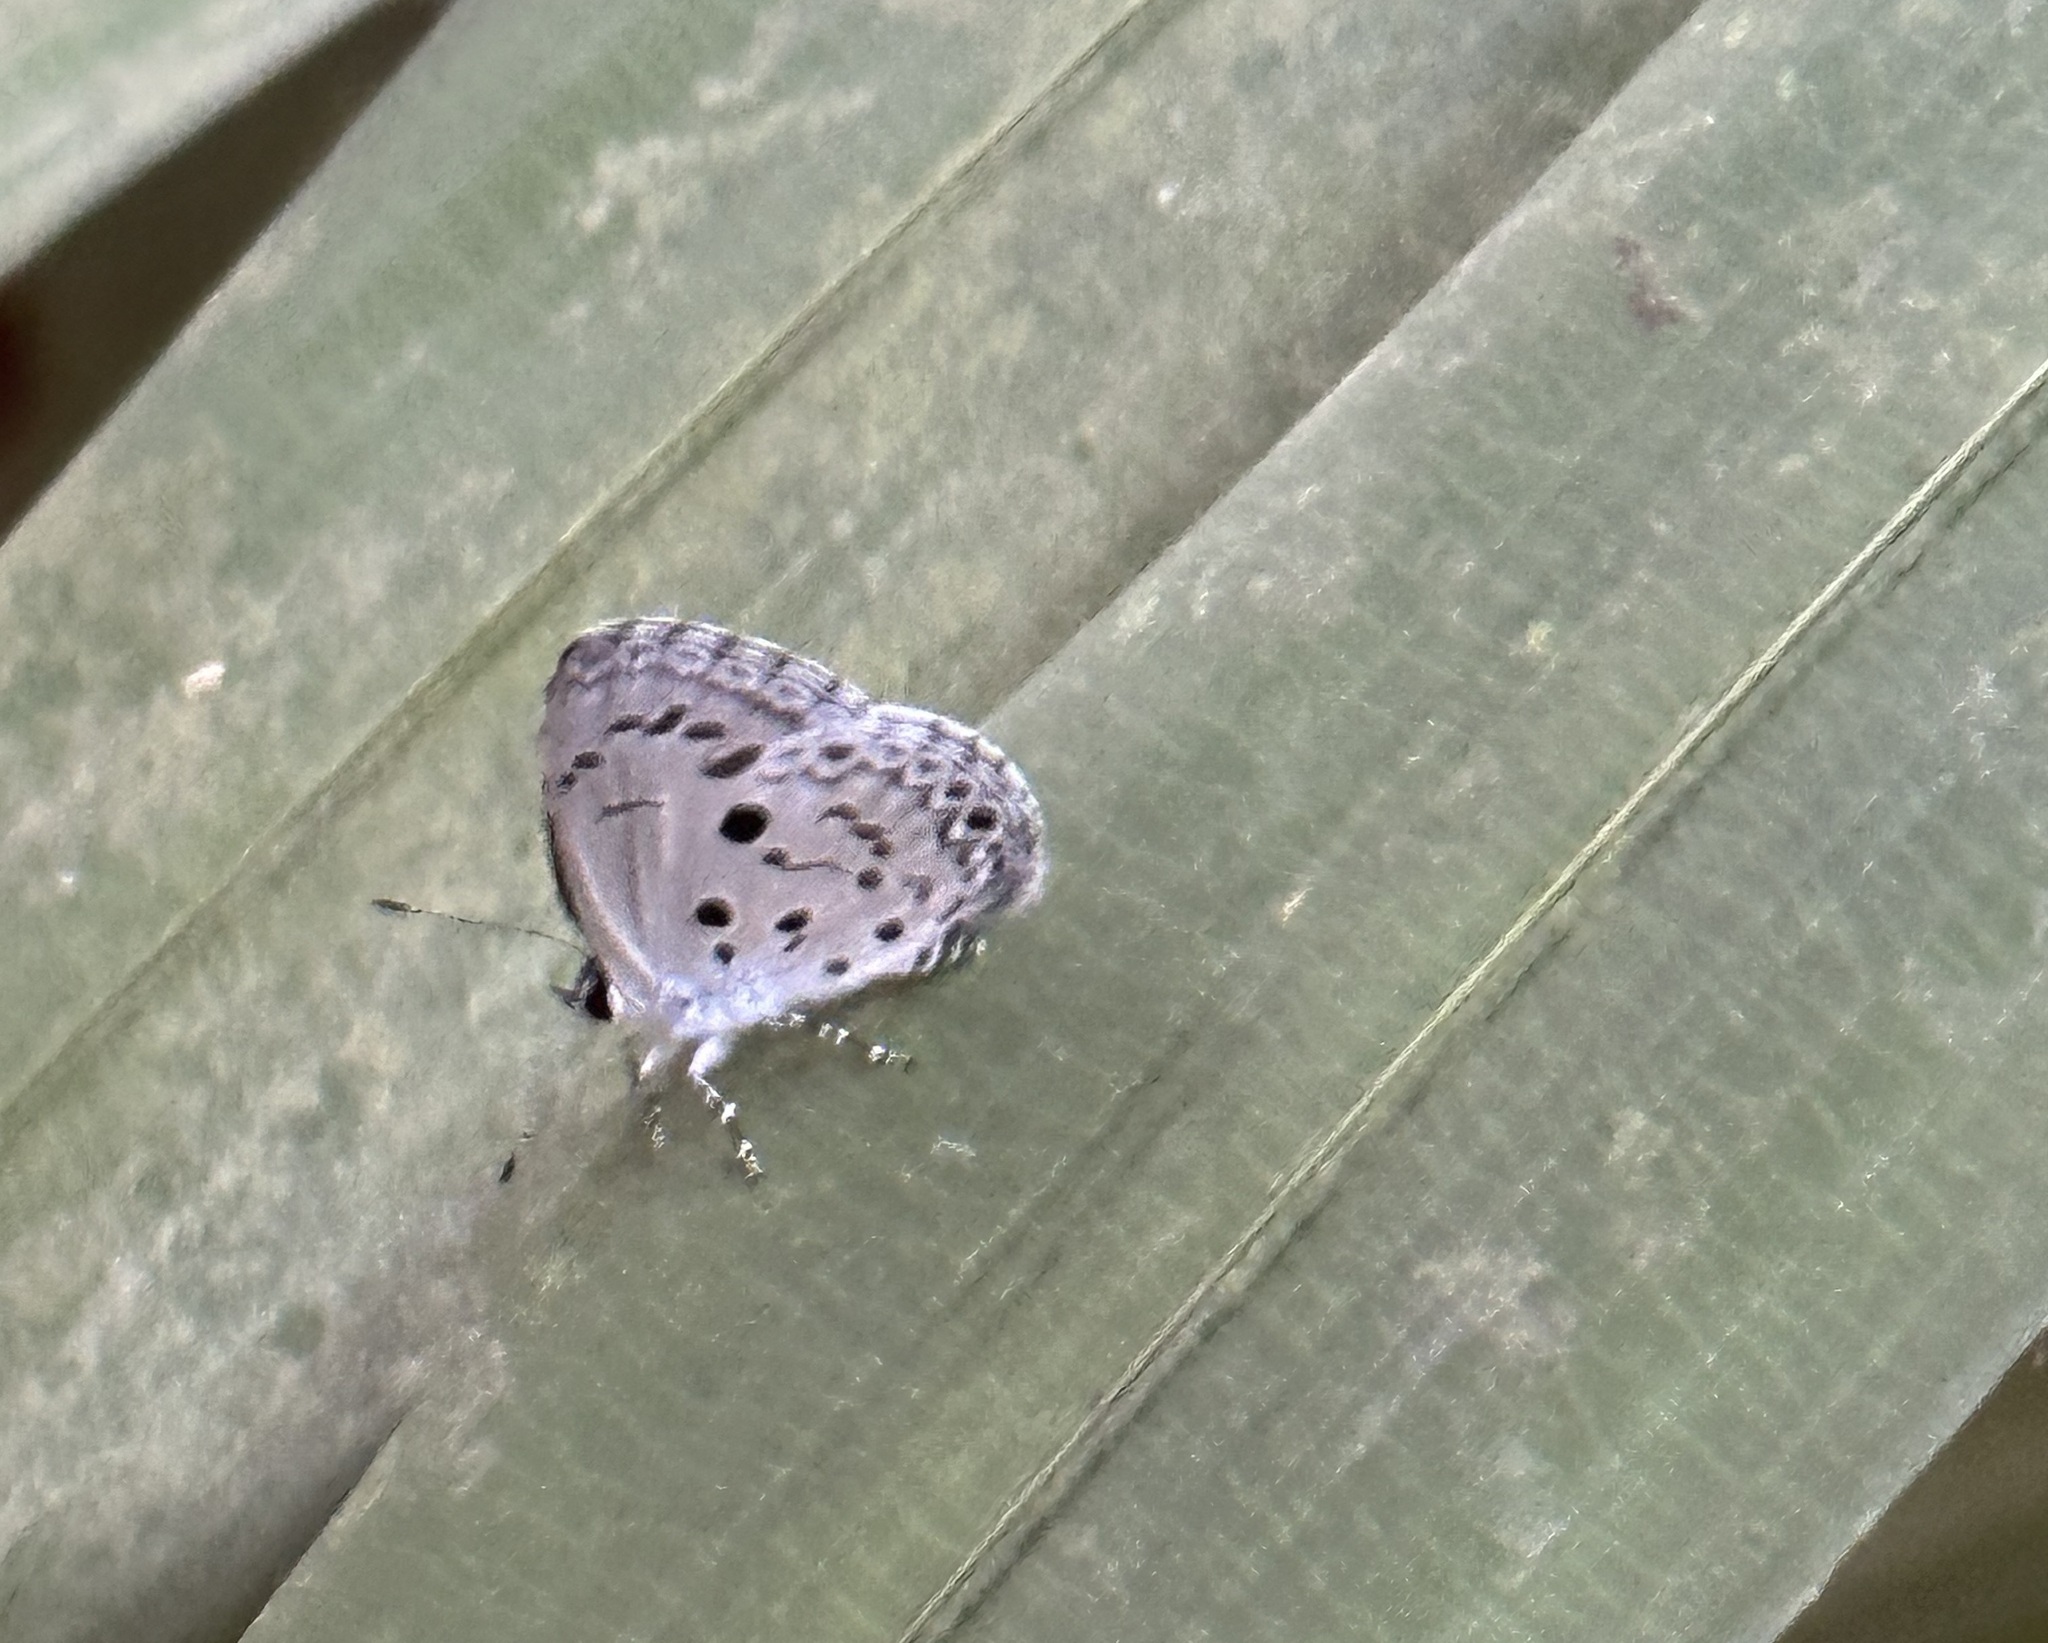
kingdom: Animalia
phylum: Arthropoda
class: Insecta
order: Lepidoptera
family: Lycaenidae
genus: Acytolepis
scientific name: Acytolepis puspa
